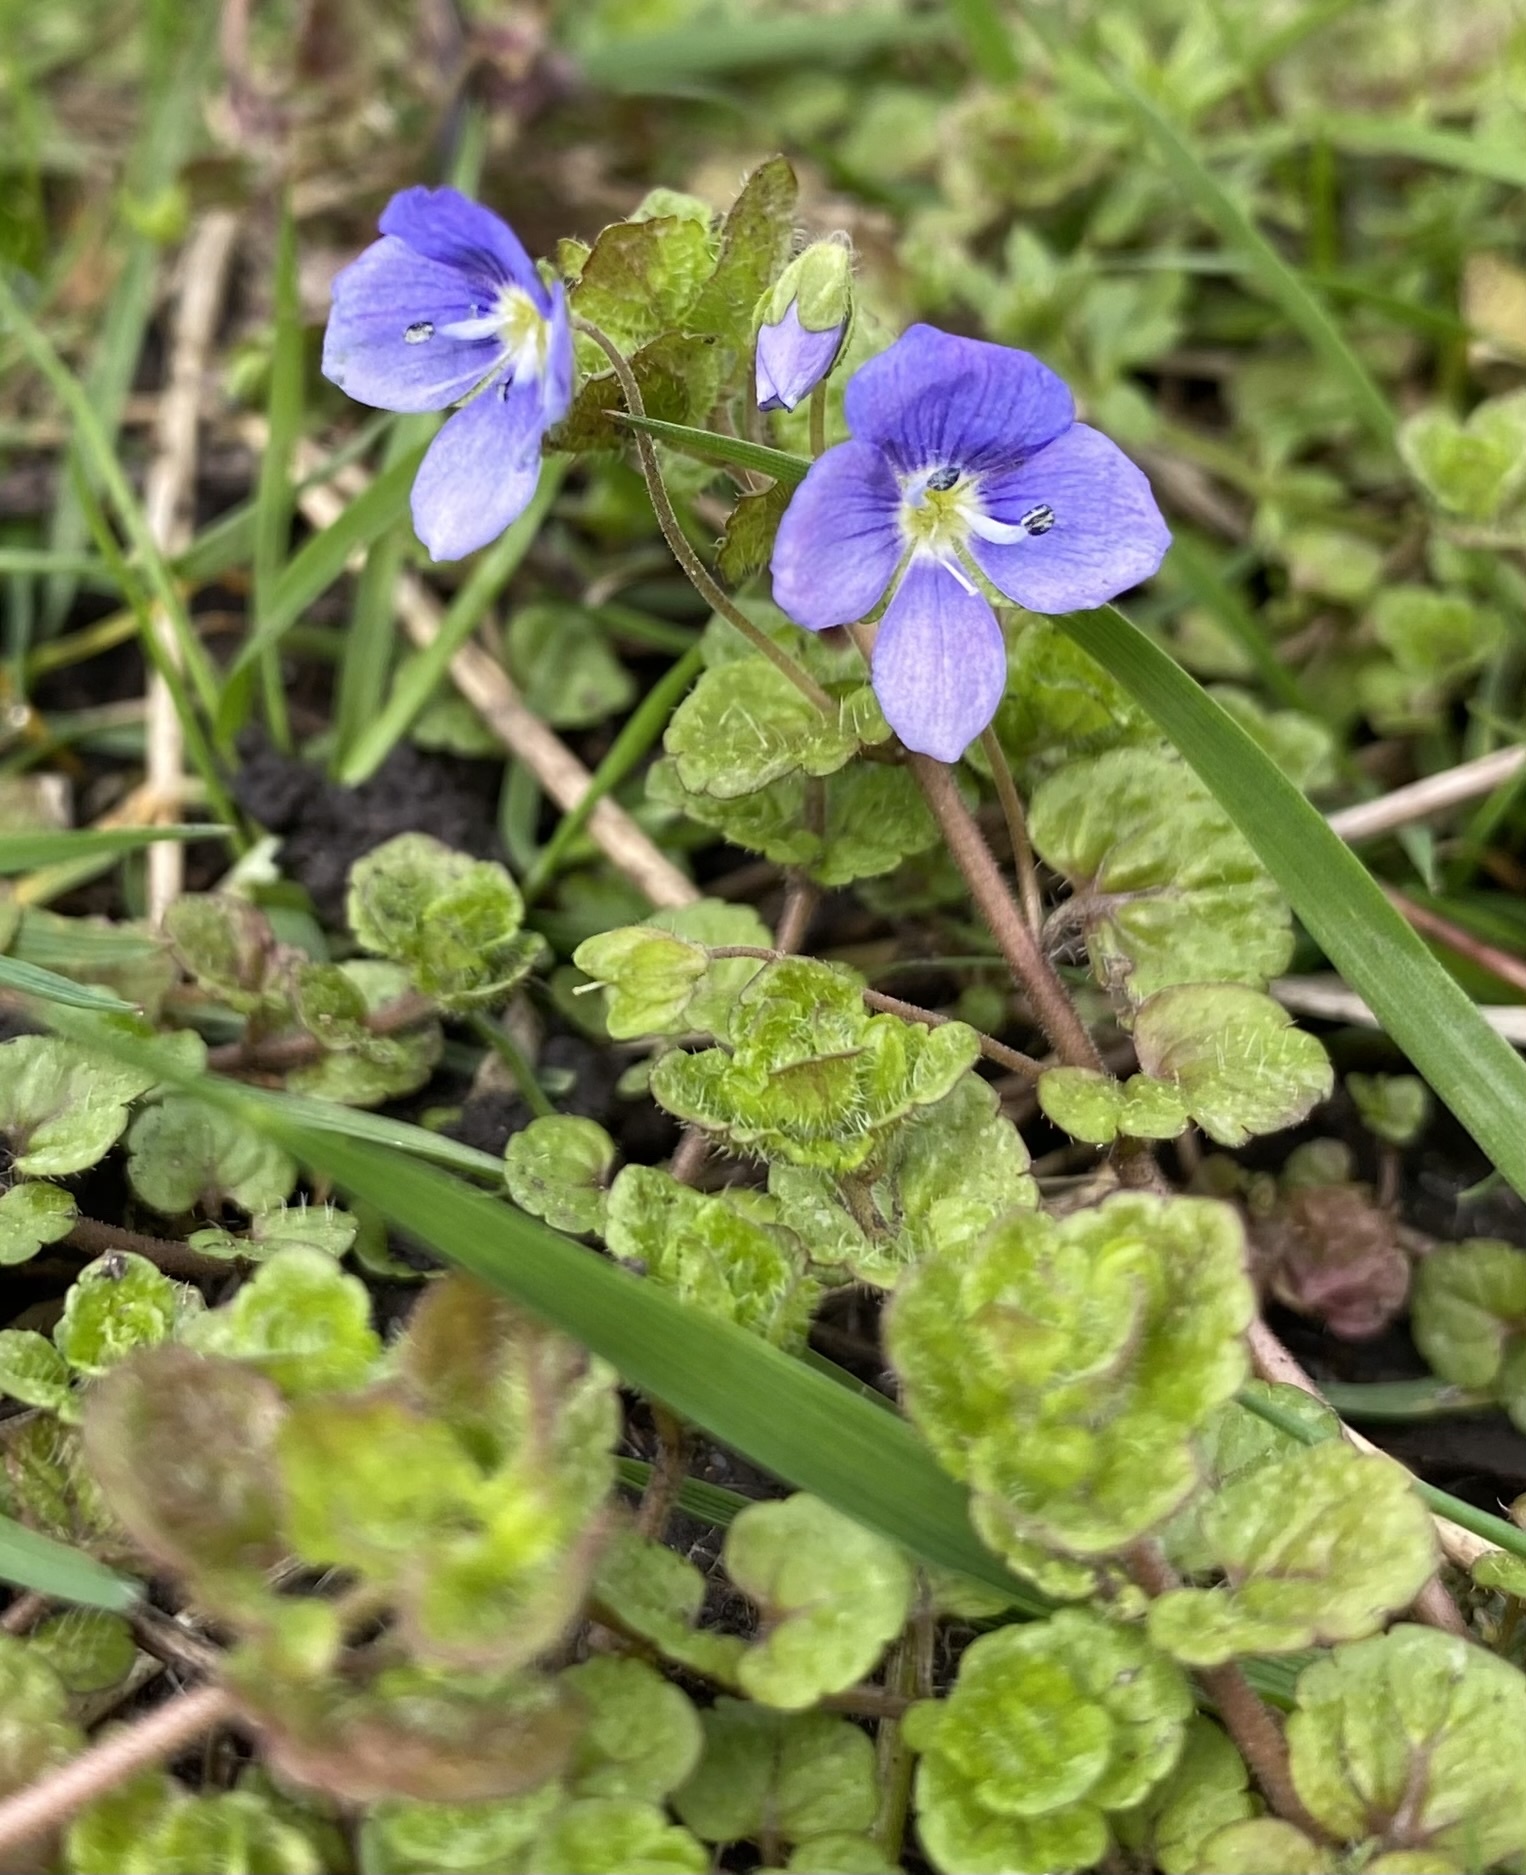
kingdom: Plantae
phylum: Tracheophyta
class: Magnoliopsida
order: Lamiales
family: Plantaginaceae
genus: Veronica
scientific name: Veronica filiformis
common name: Slender speedwell
